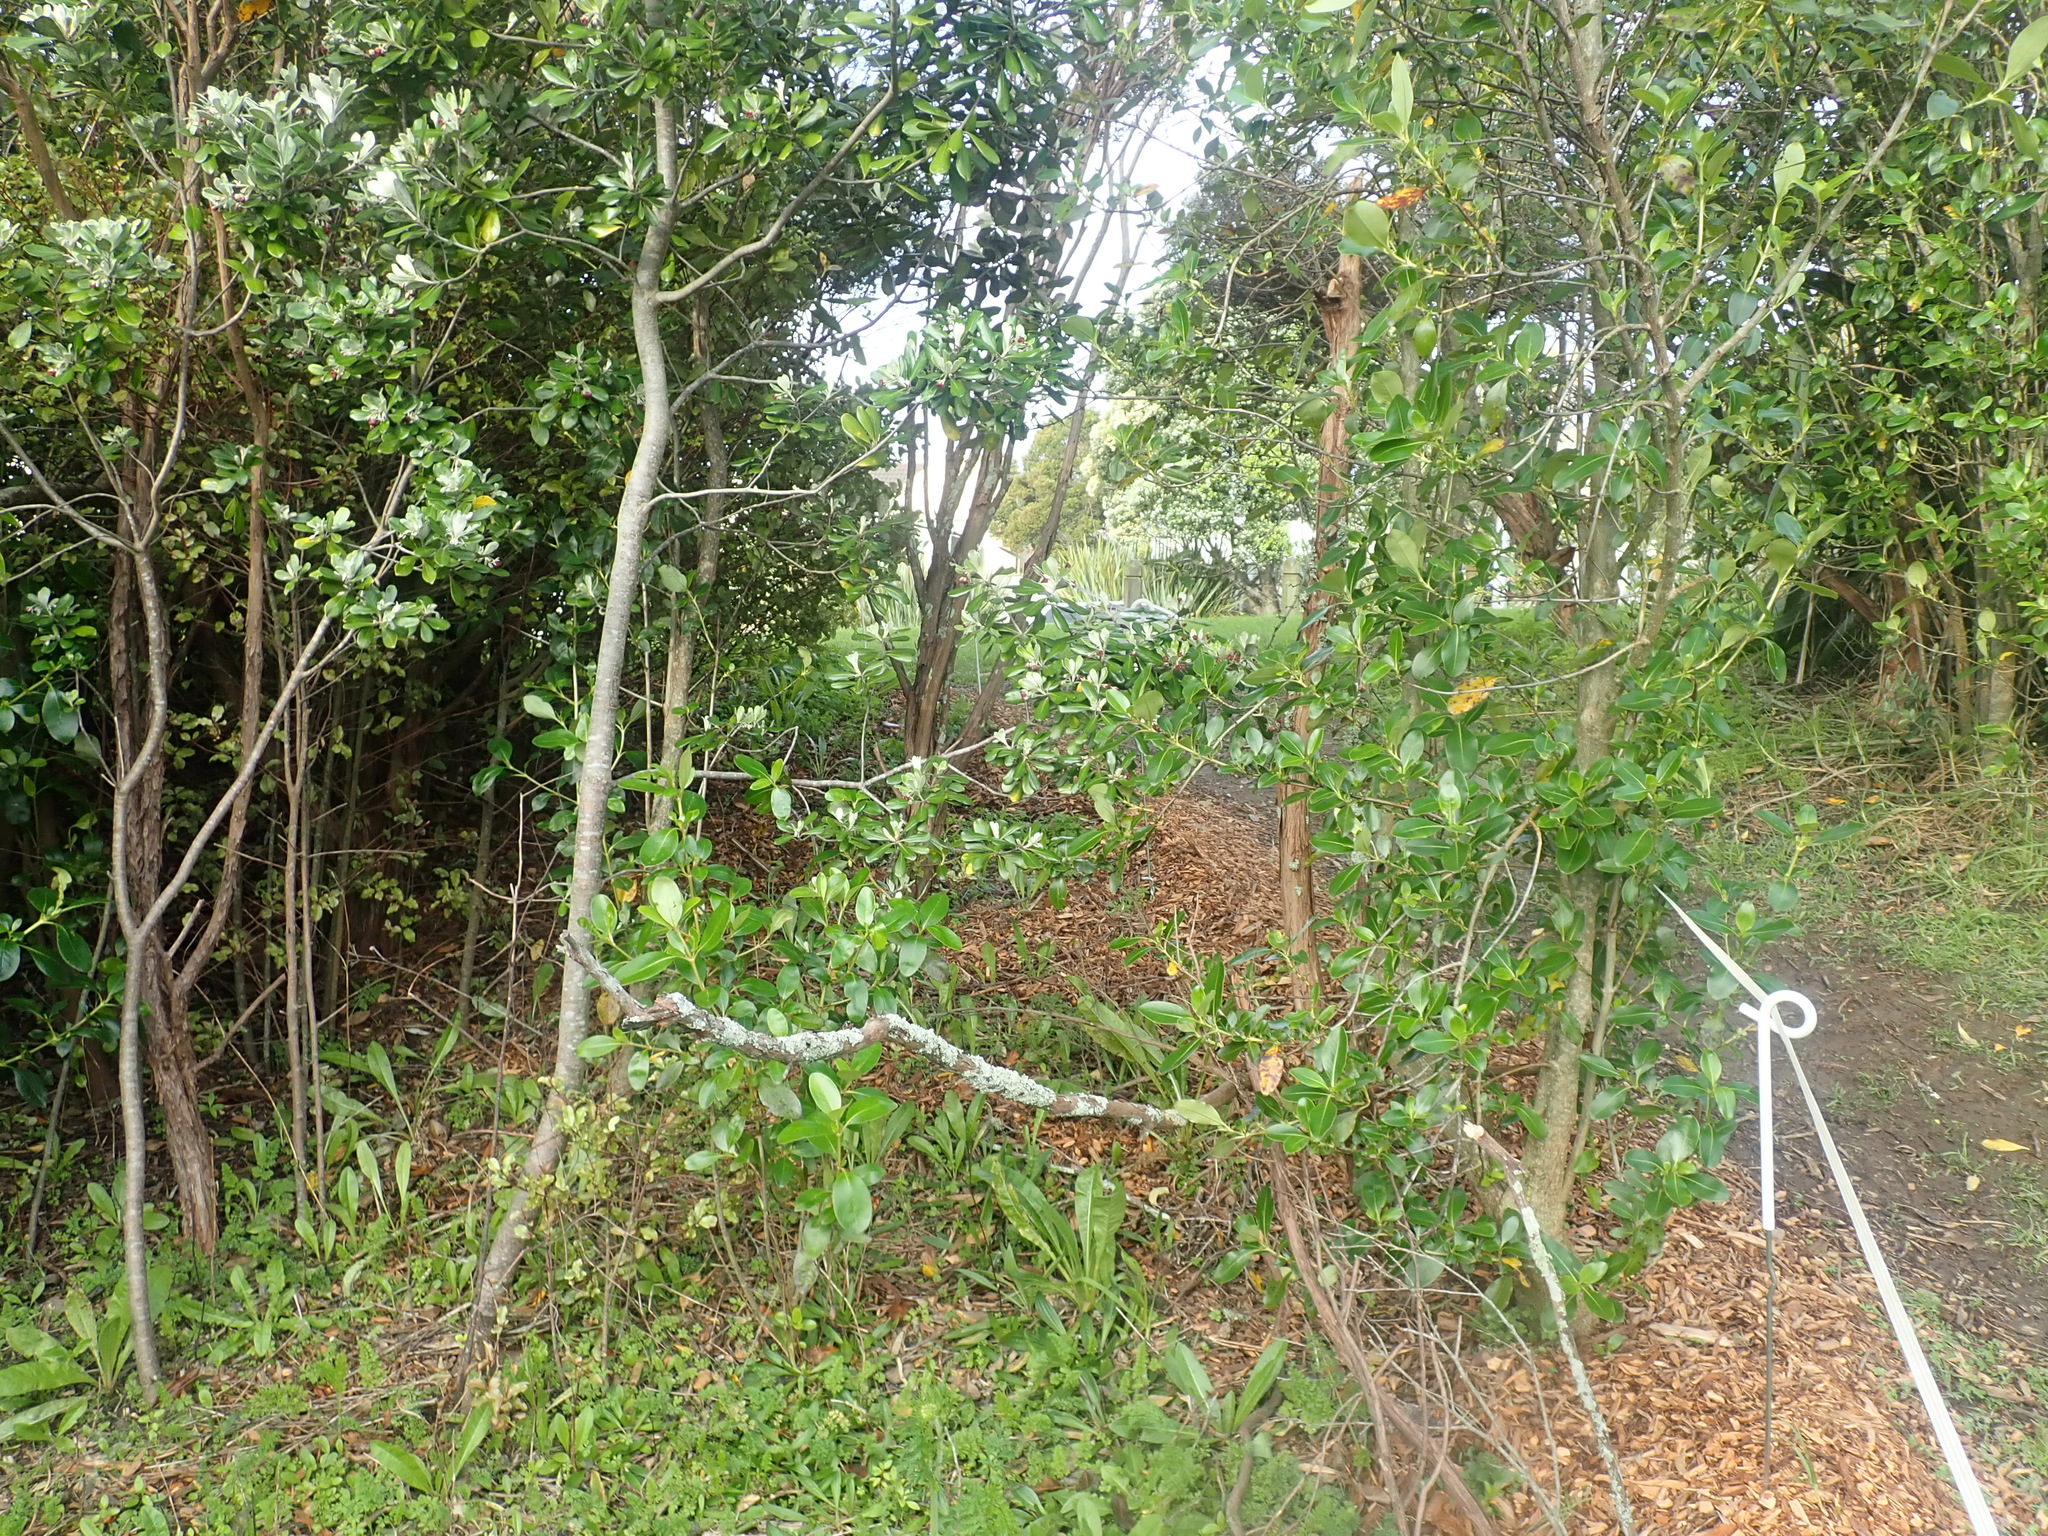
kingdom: Plantae
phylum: Tracheophyta
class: Magnoliopsida
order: Gentianales
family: Rubiaceae
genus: Coprosma
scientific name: Coprosma robusta
